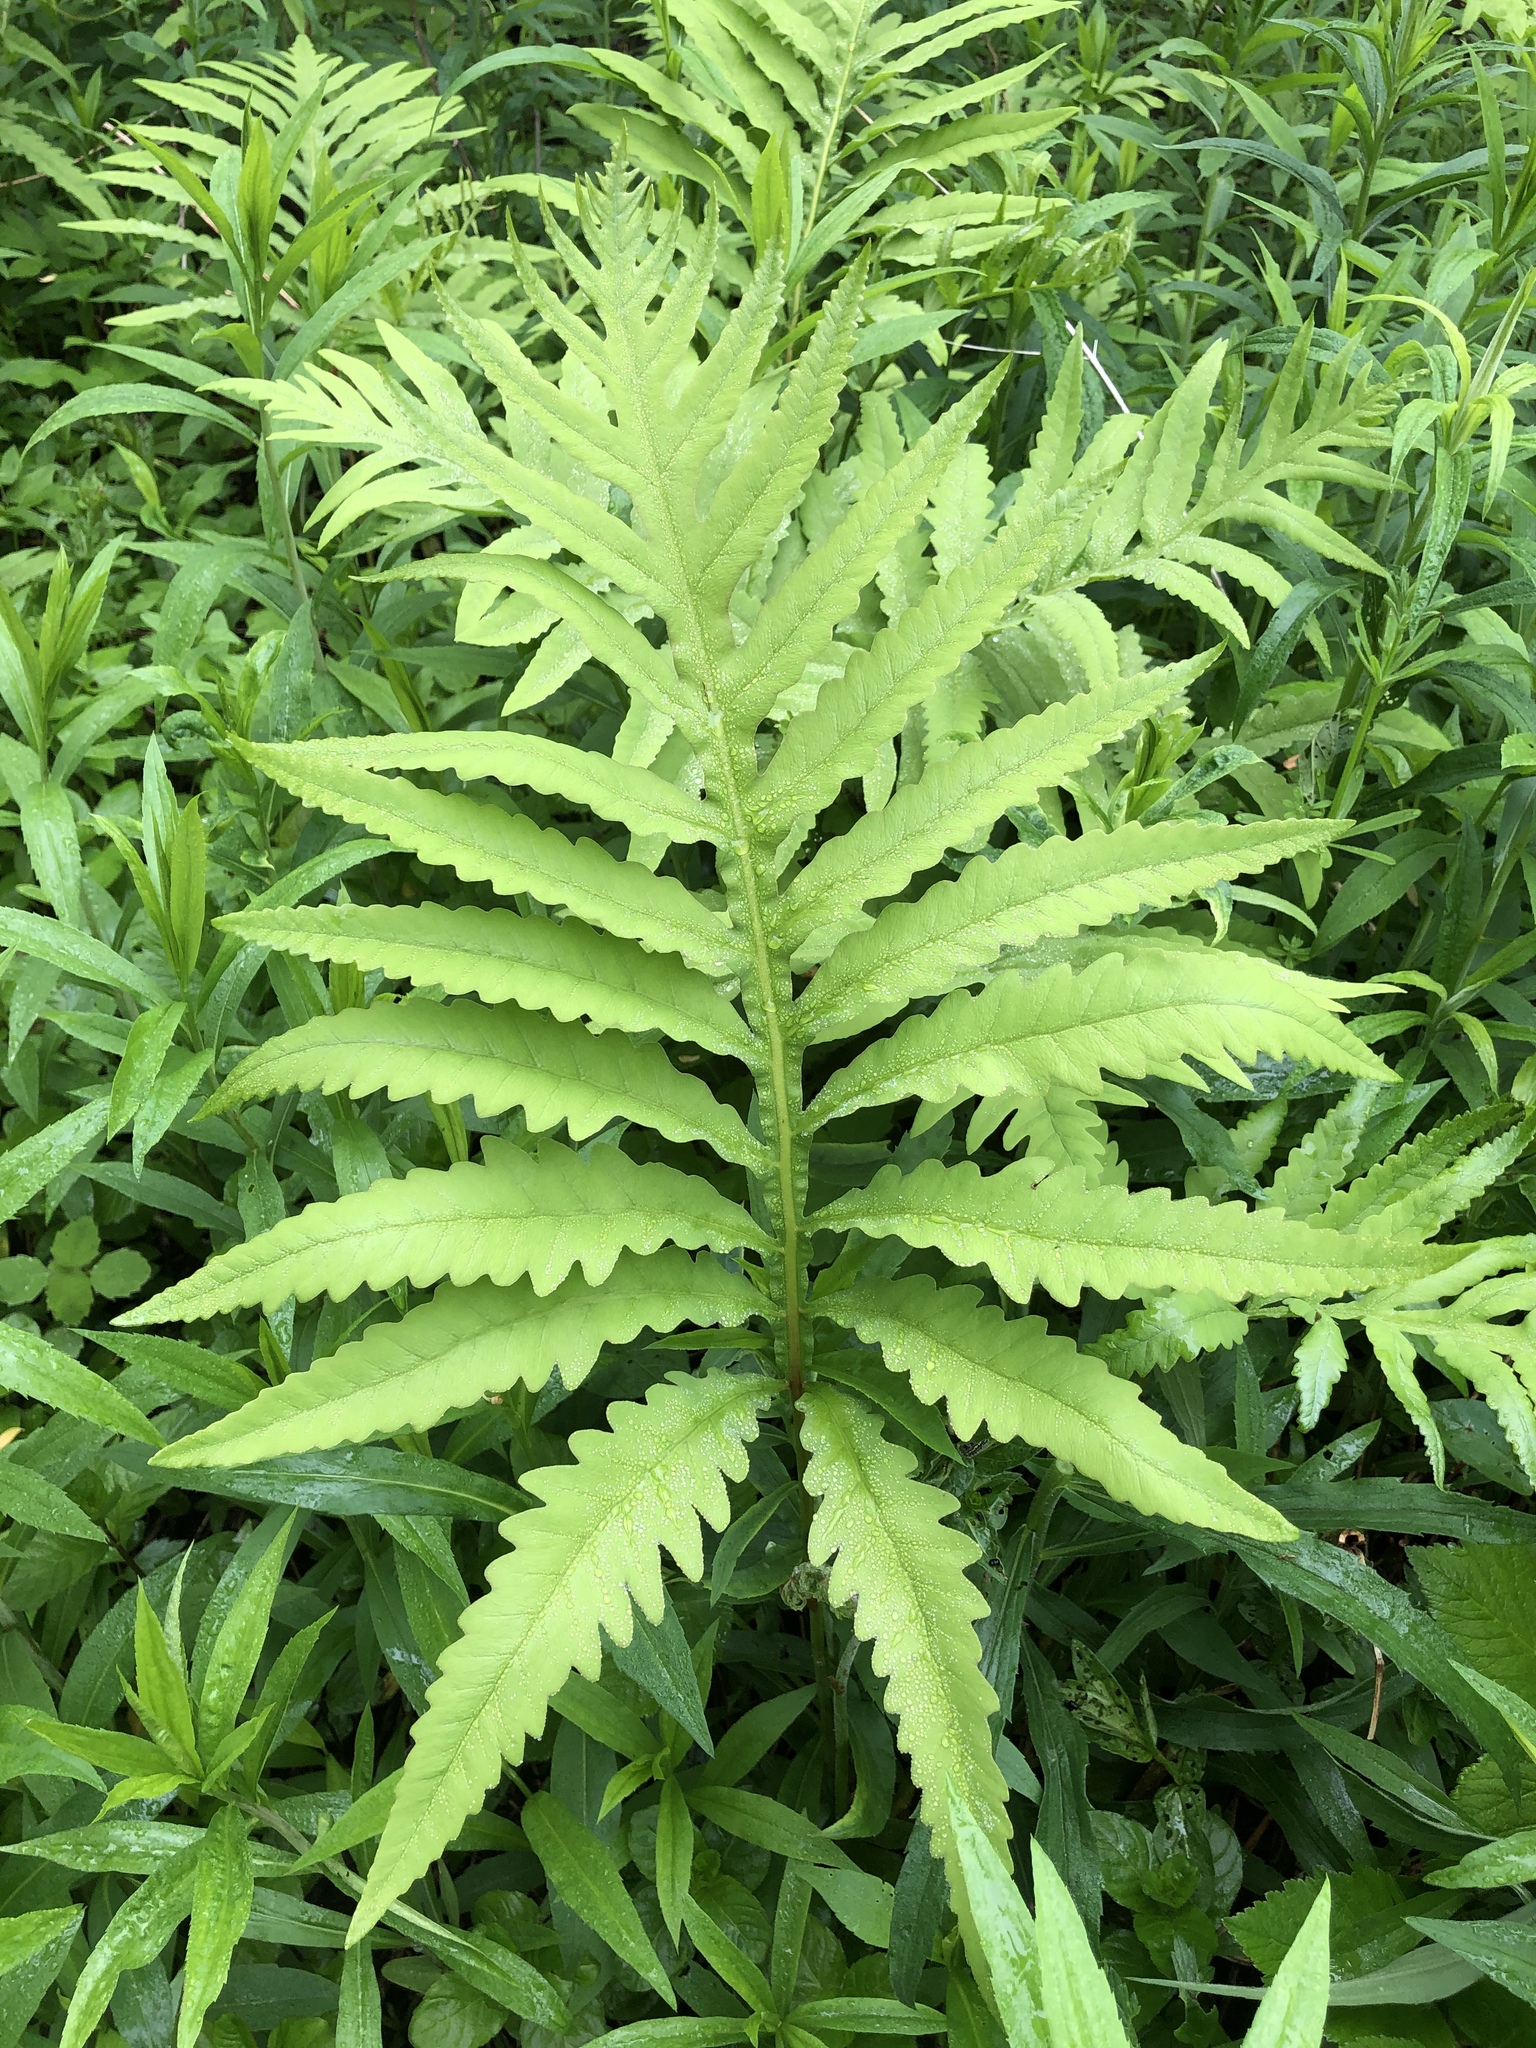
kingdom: Plantae
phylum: Tracheophyta
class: Polypodiopsida
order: Polypodiales
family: Onocleaceae
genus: Onoclea
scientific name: Onoclea sensibilis
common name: Sensitive fern
